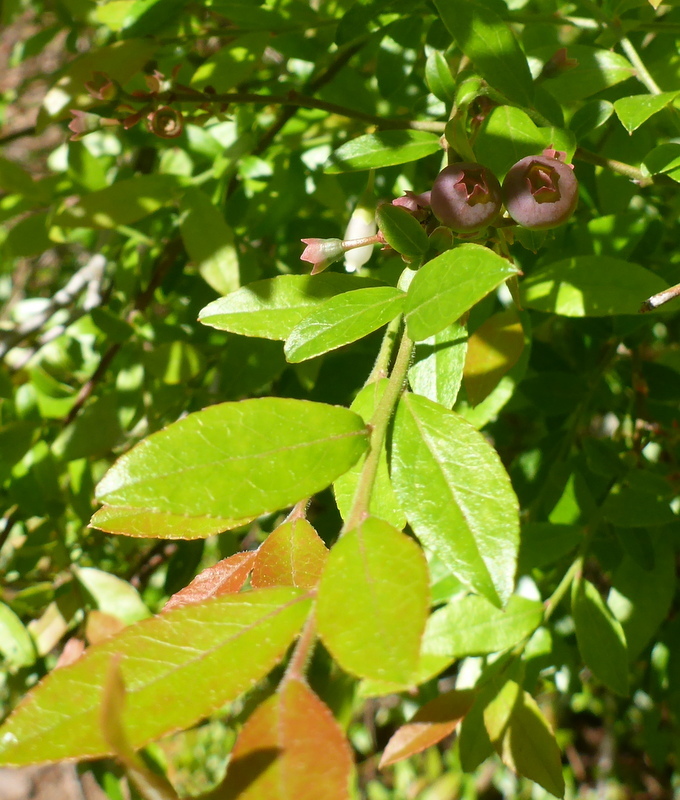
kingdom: Plantae
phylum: Tracheophyta
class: Magnoliopsida
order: Ericales
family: Ericaceae
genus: Vaccinium
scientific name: Vaccinium corymbosum
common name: Blueberry
